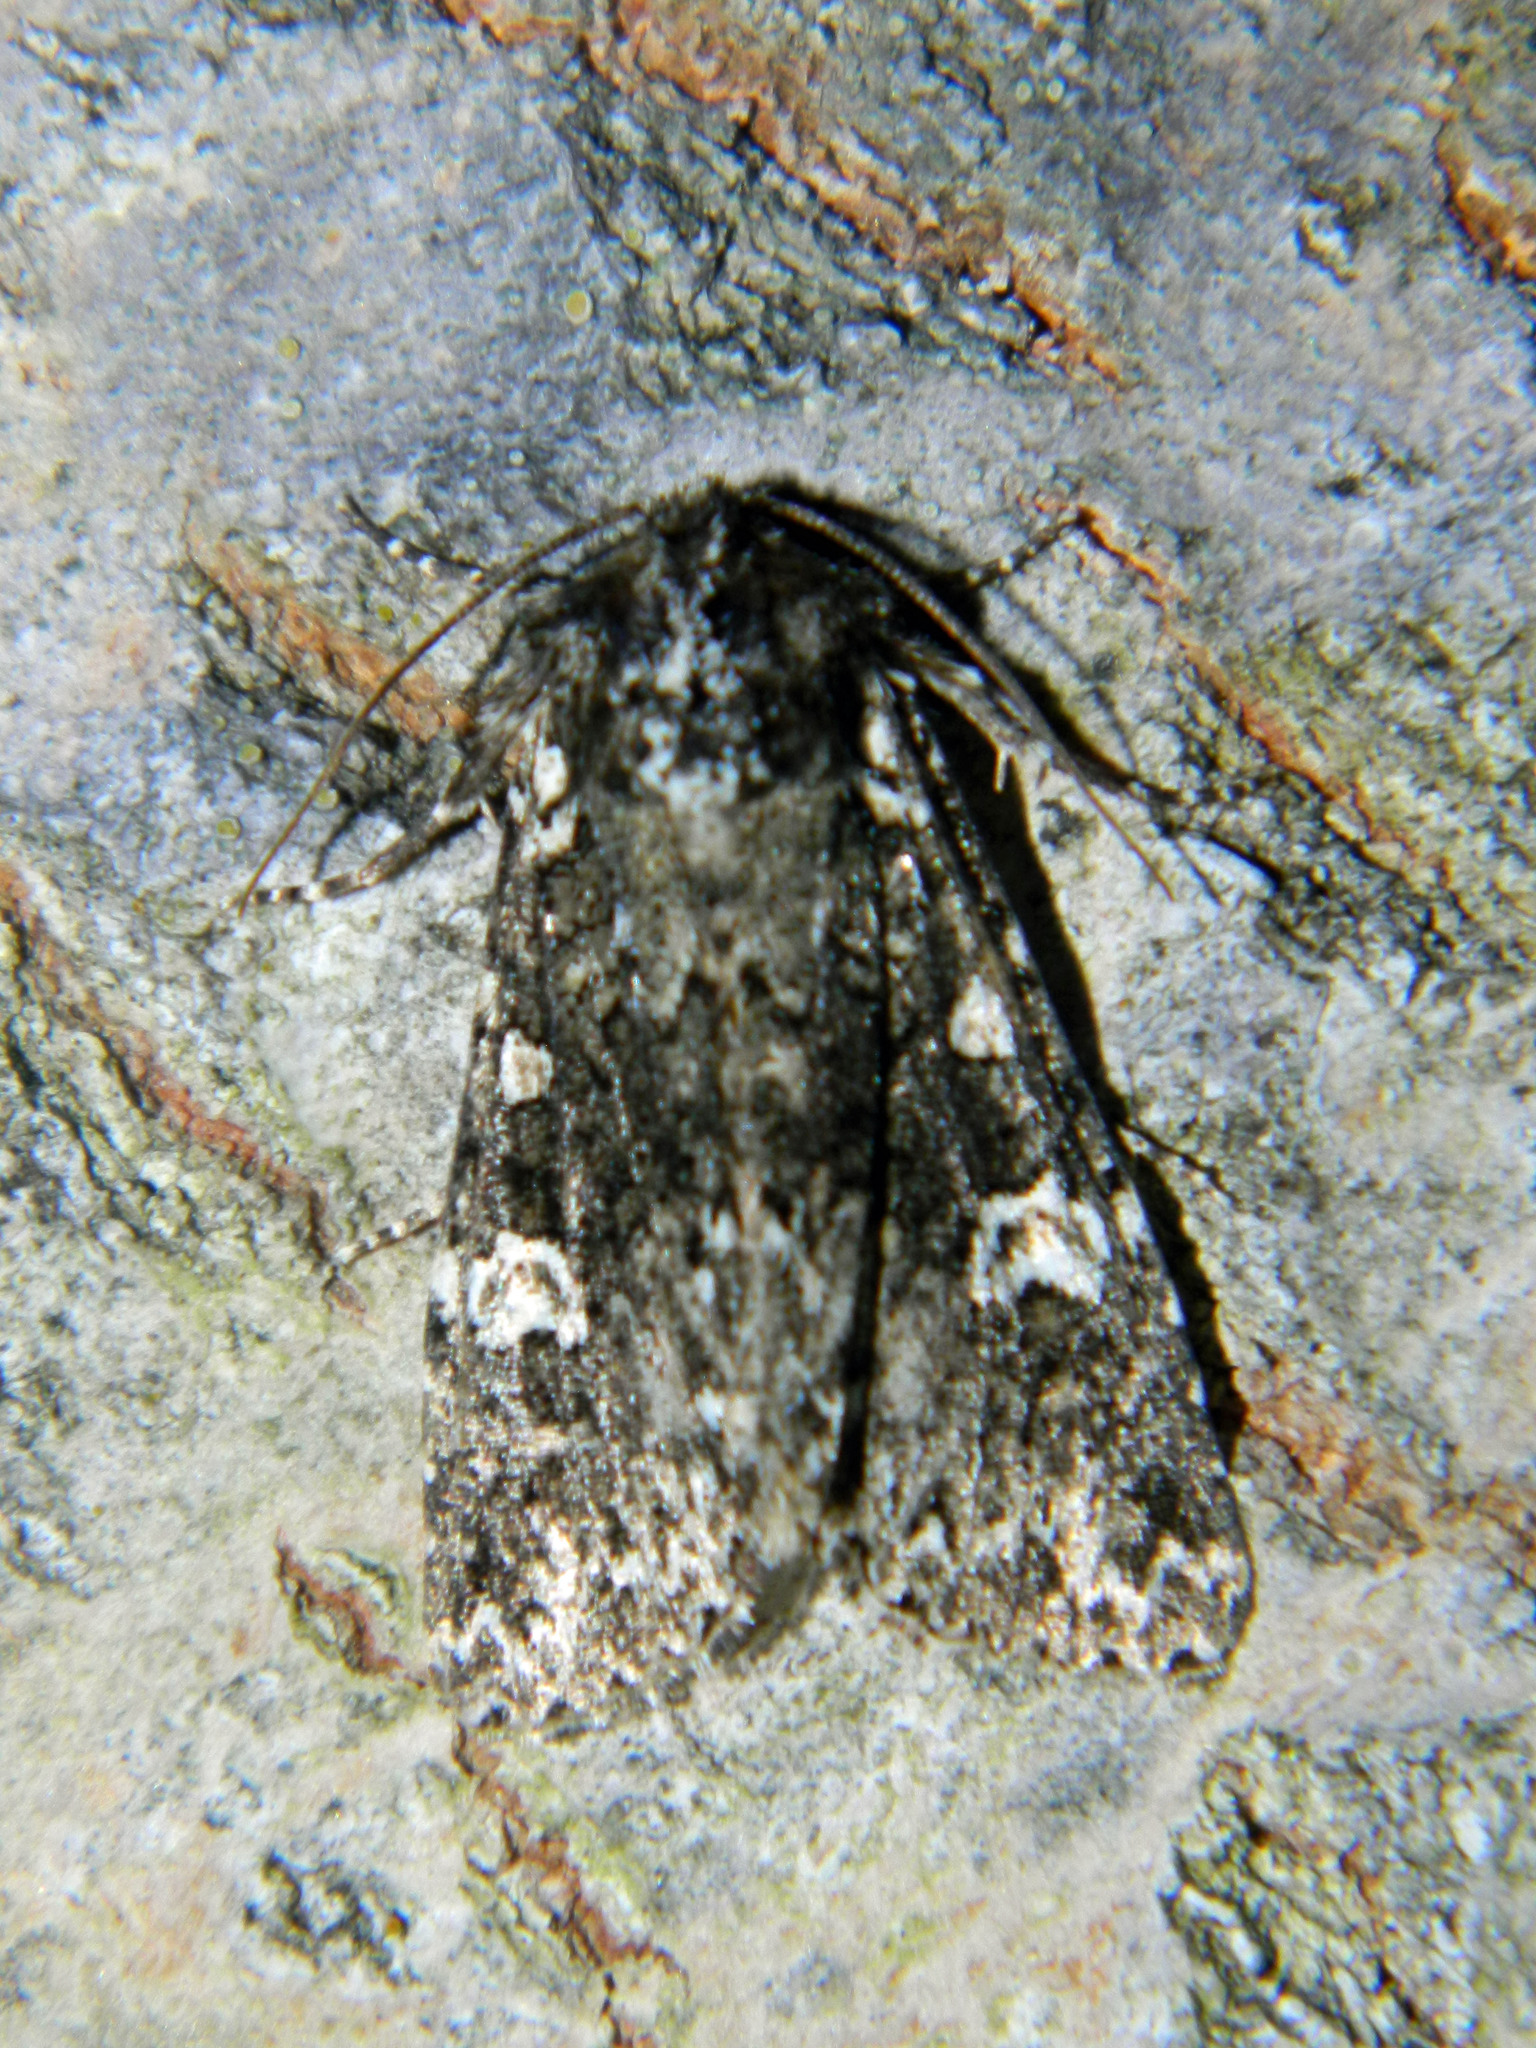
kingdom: Animalia
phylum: Arthropoda
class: Insecta
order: Lepidoptera
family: Noctuidae
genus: Melanchra
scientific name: Melanchra adjuncta
